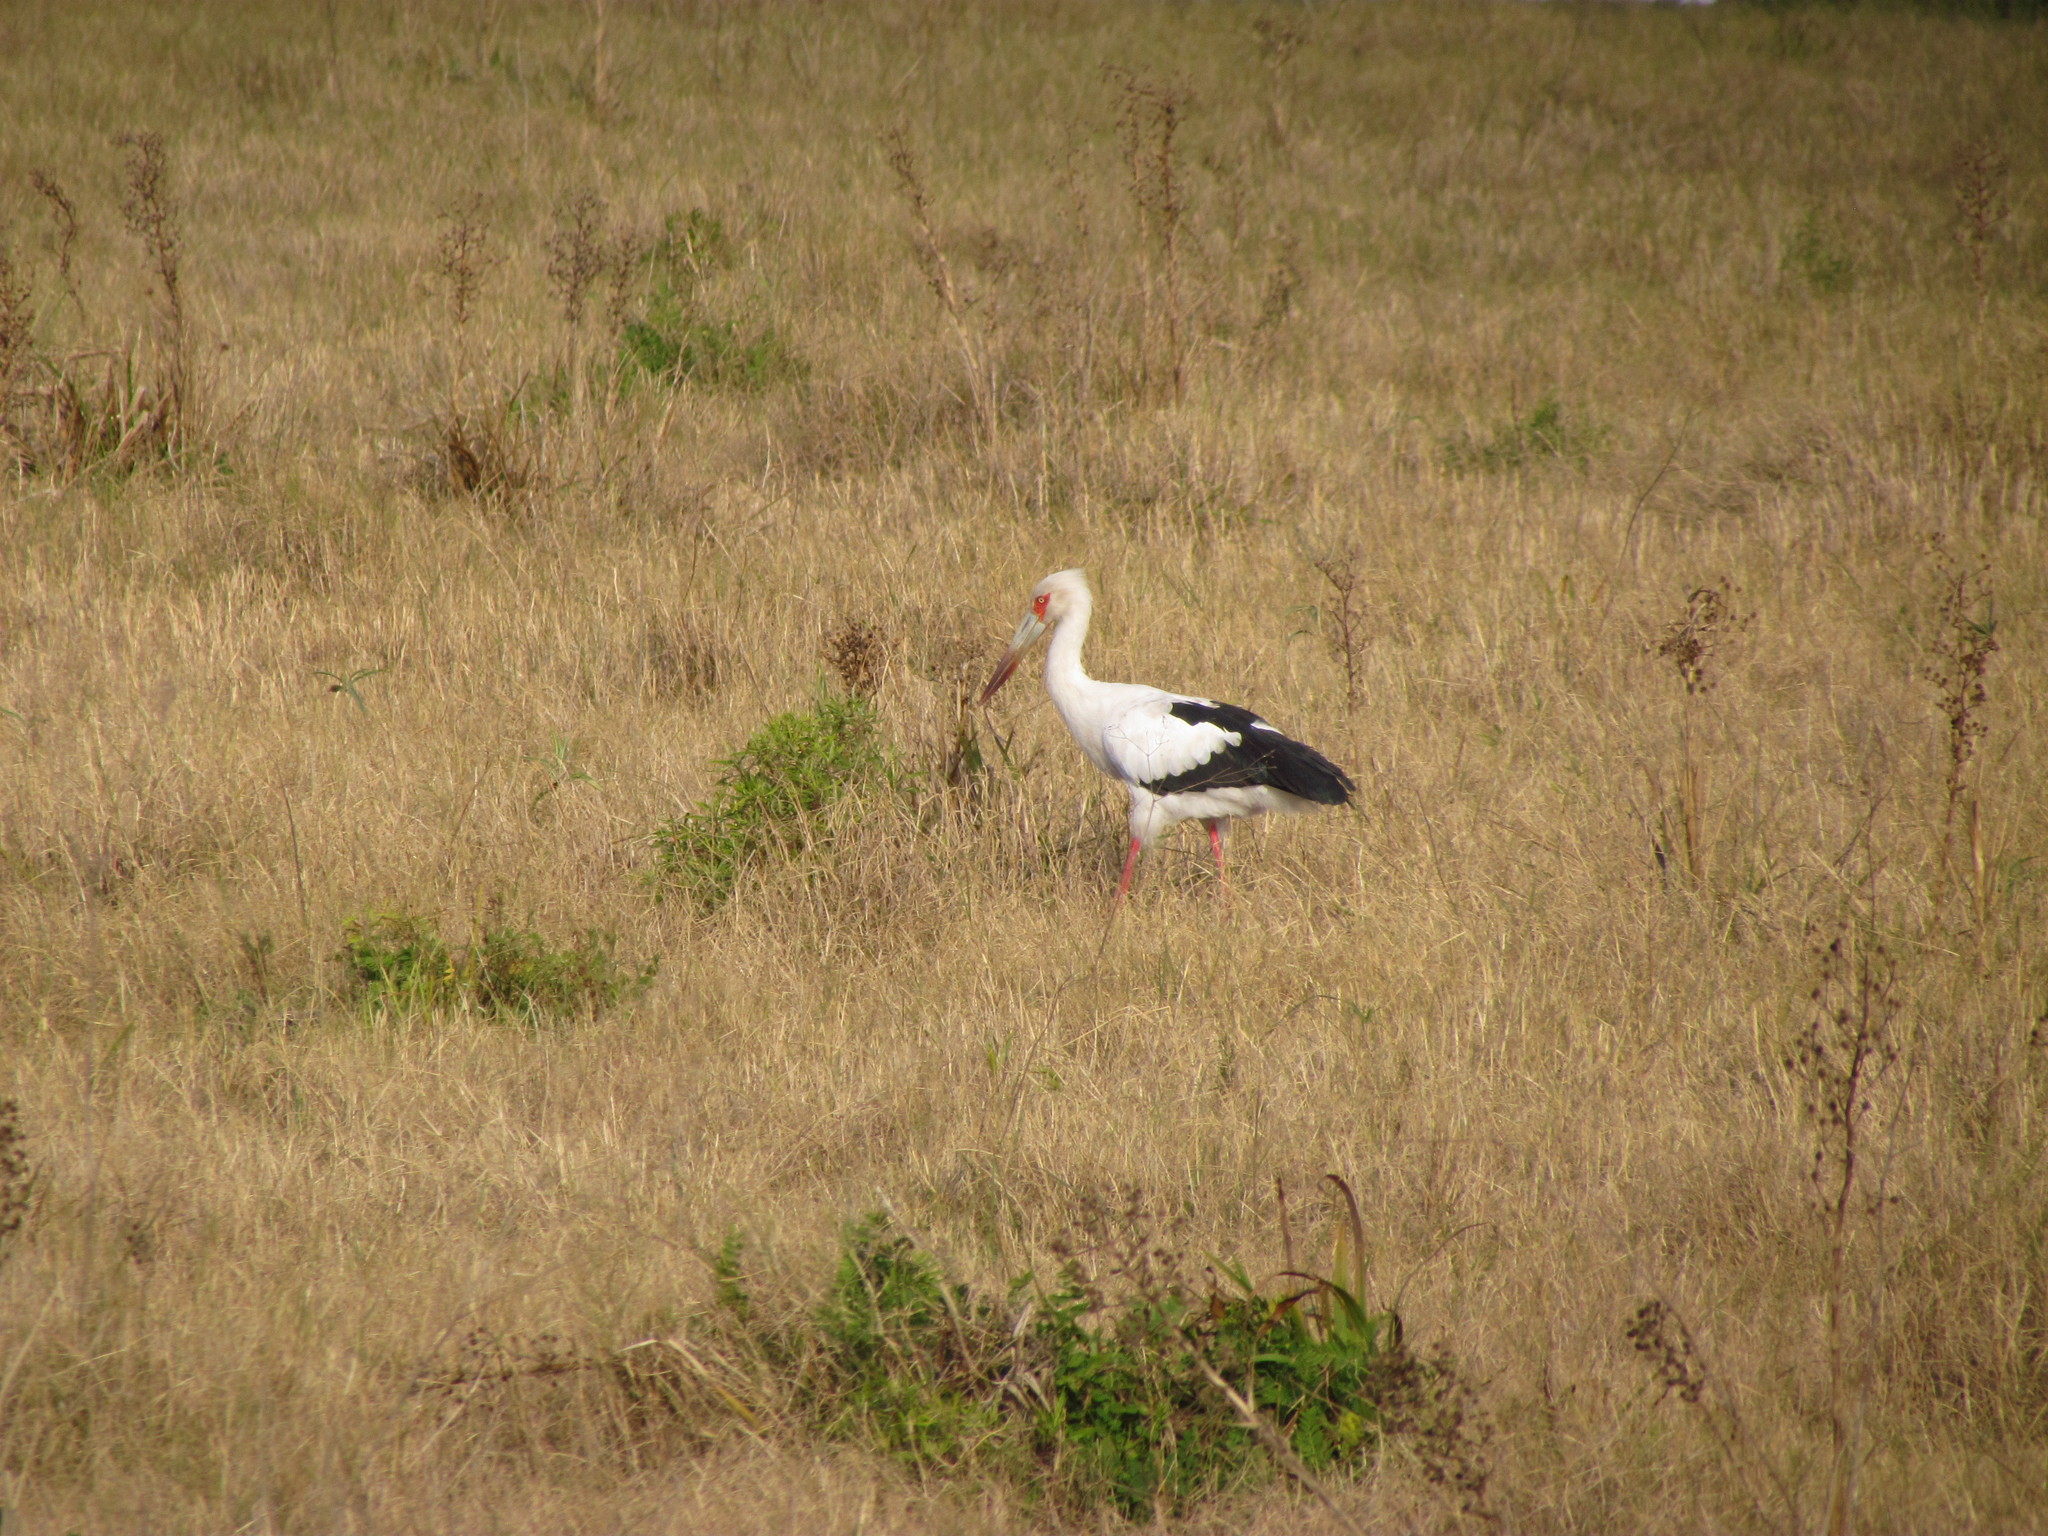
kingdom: Animalia
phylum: Chordata
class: Aves
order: Ciconiiformes
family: Ciconiidae
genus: Ciconia
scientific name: Ciconia maguari
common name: Maguari stork
